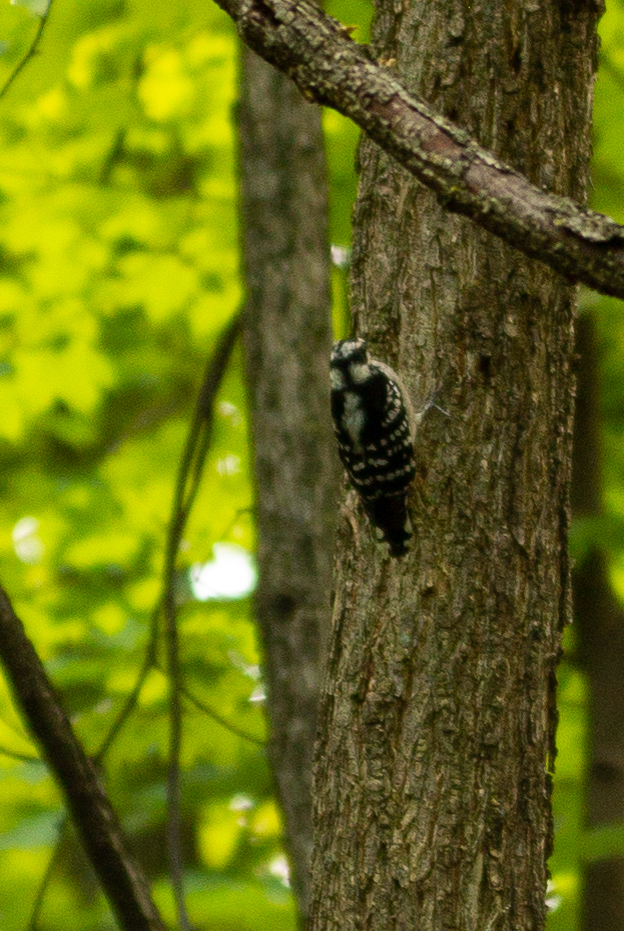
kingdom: Animalia
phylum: Chordata
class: Aves
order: Piciformes
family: Picidae
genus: Dryobates
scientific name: Dryobates pubescens
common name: Downy woodpecker
